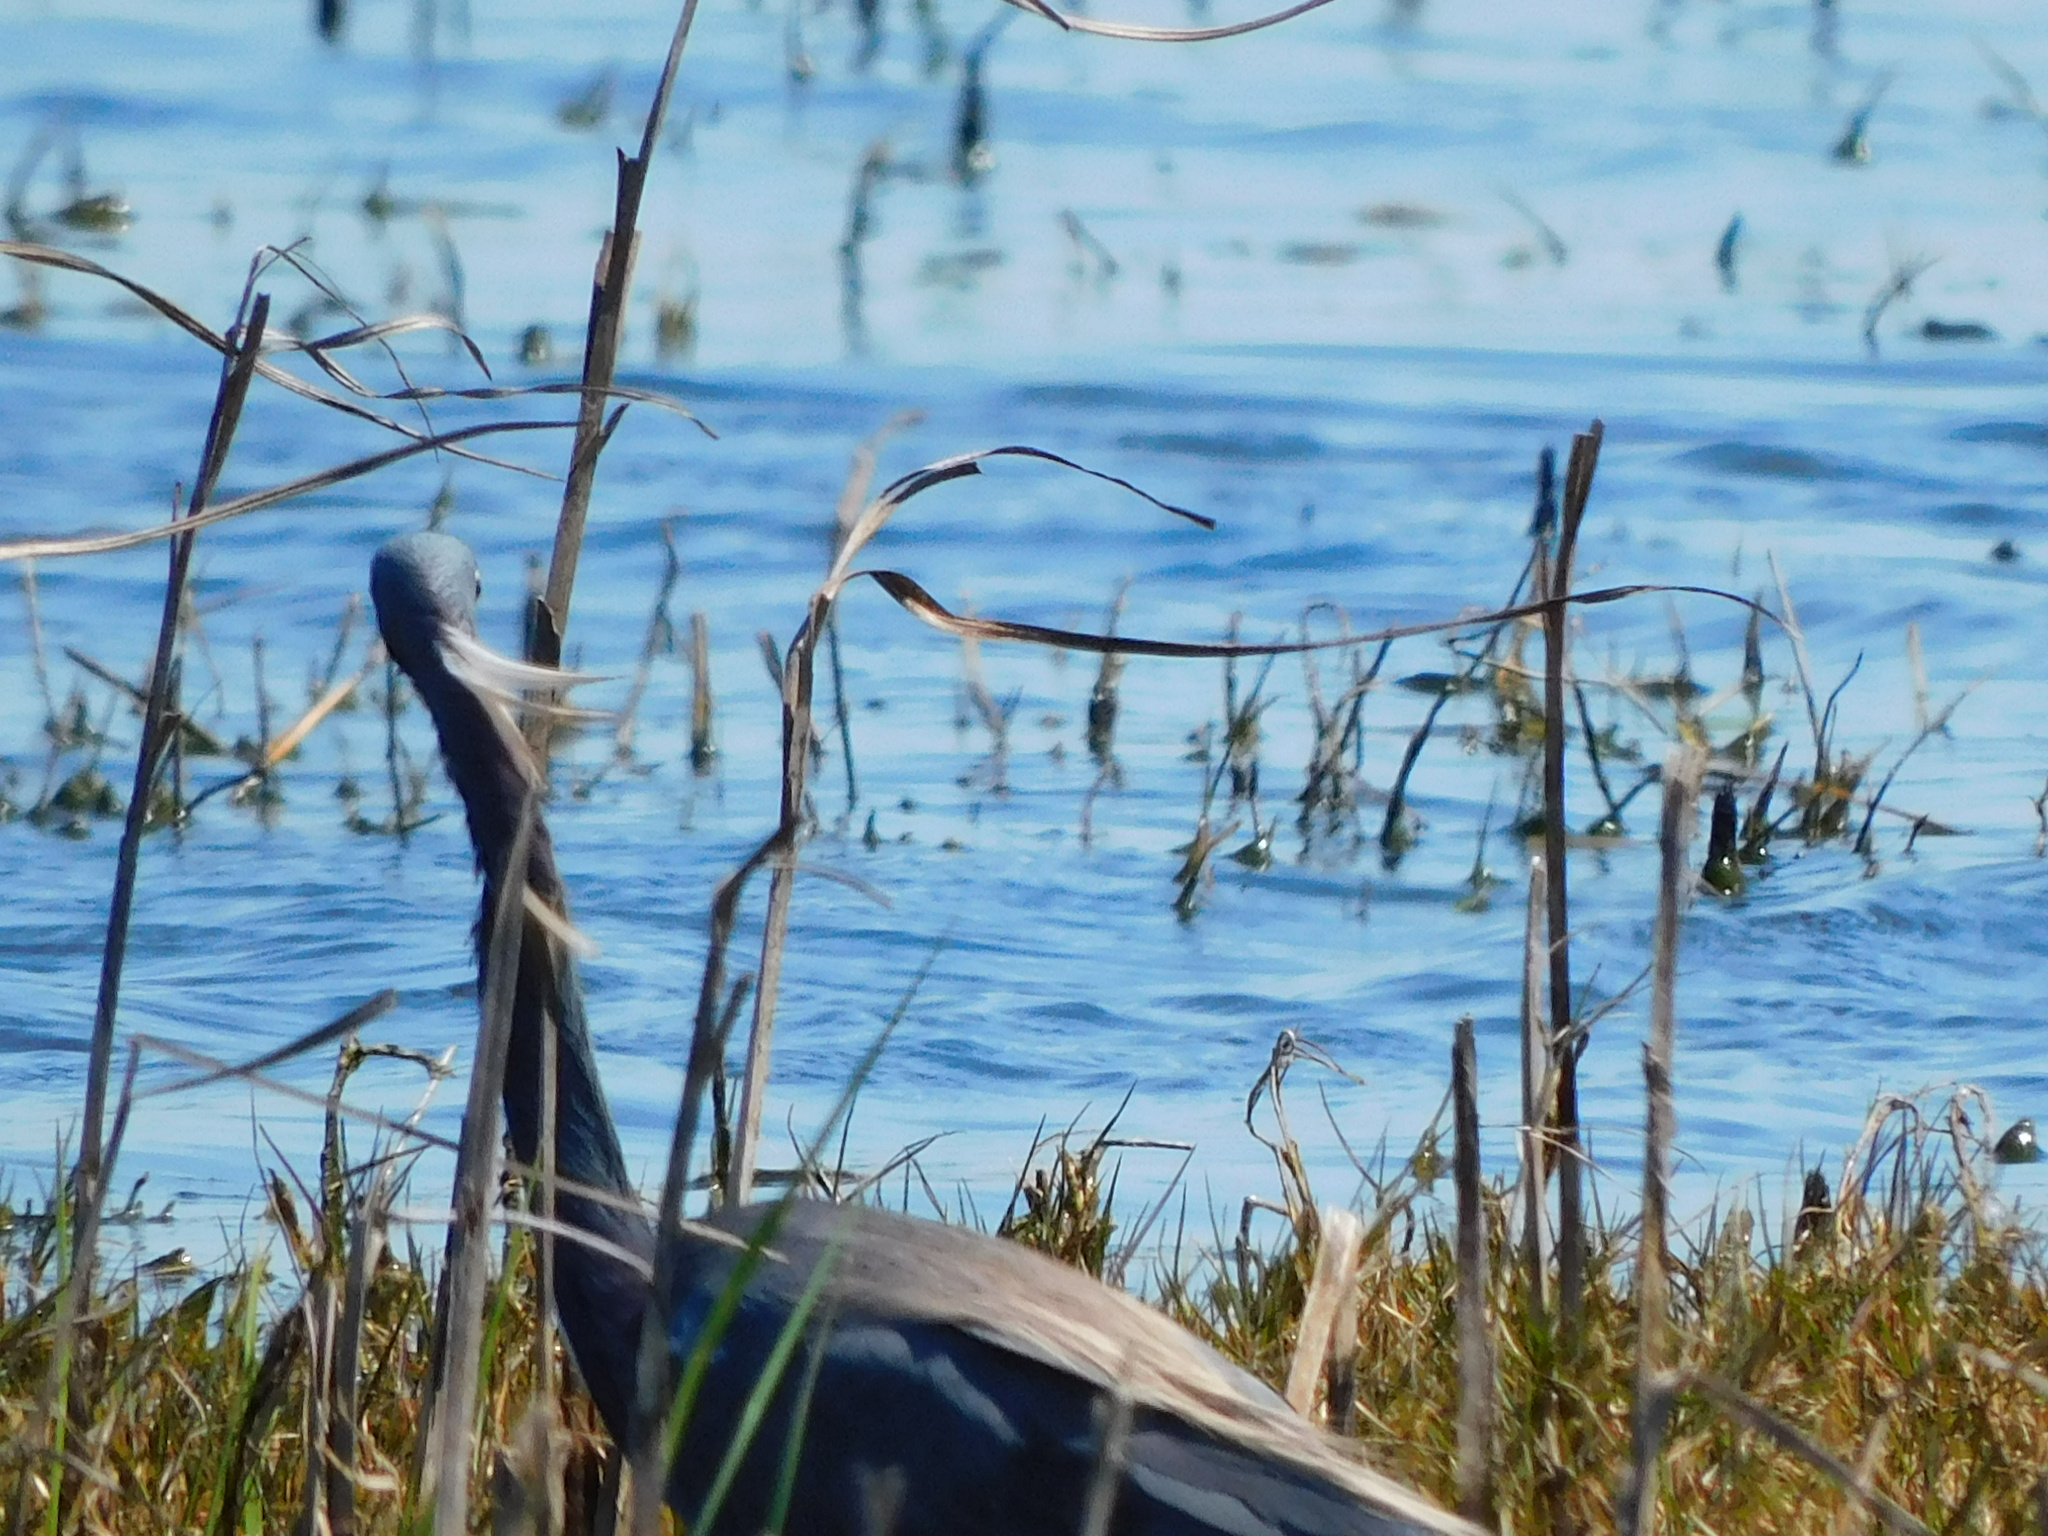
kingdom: Animalia
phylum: Chordata
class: Aves
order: Pelecaniformes
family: Ardeidae
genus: Egretta
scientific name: Egretta tricolor
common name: Tricolored heron
